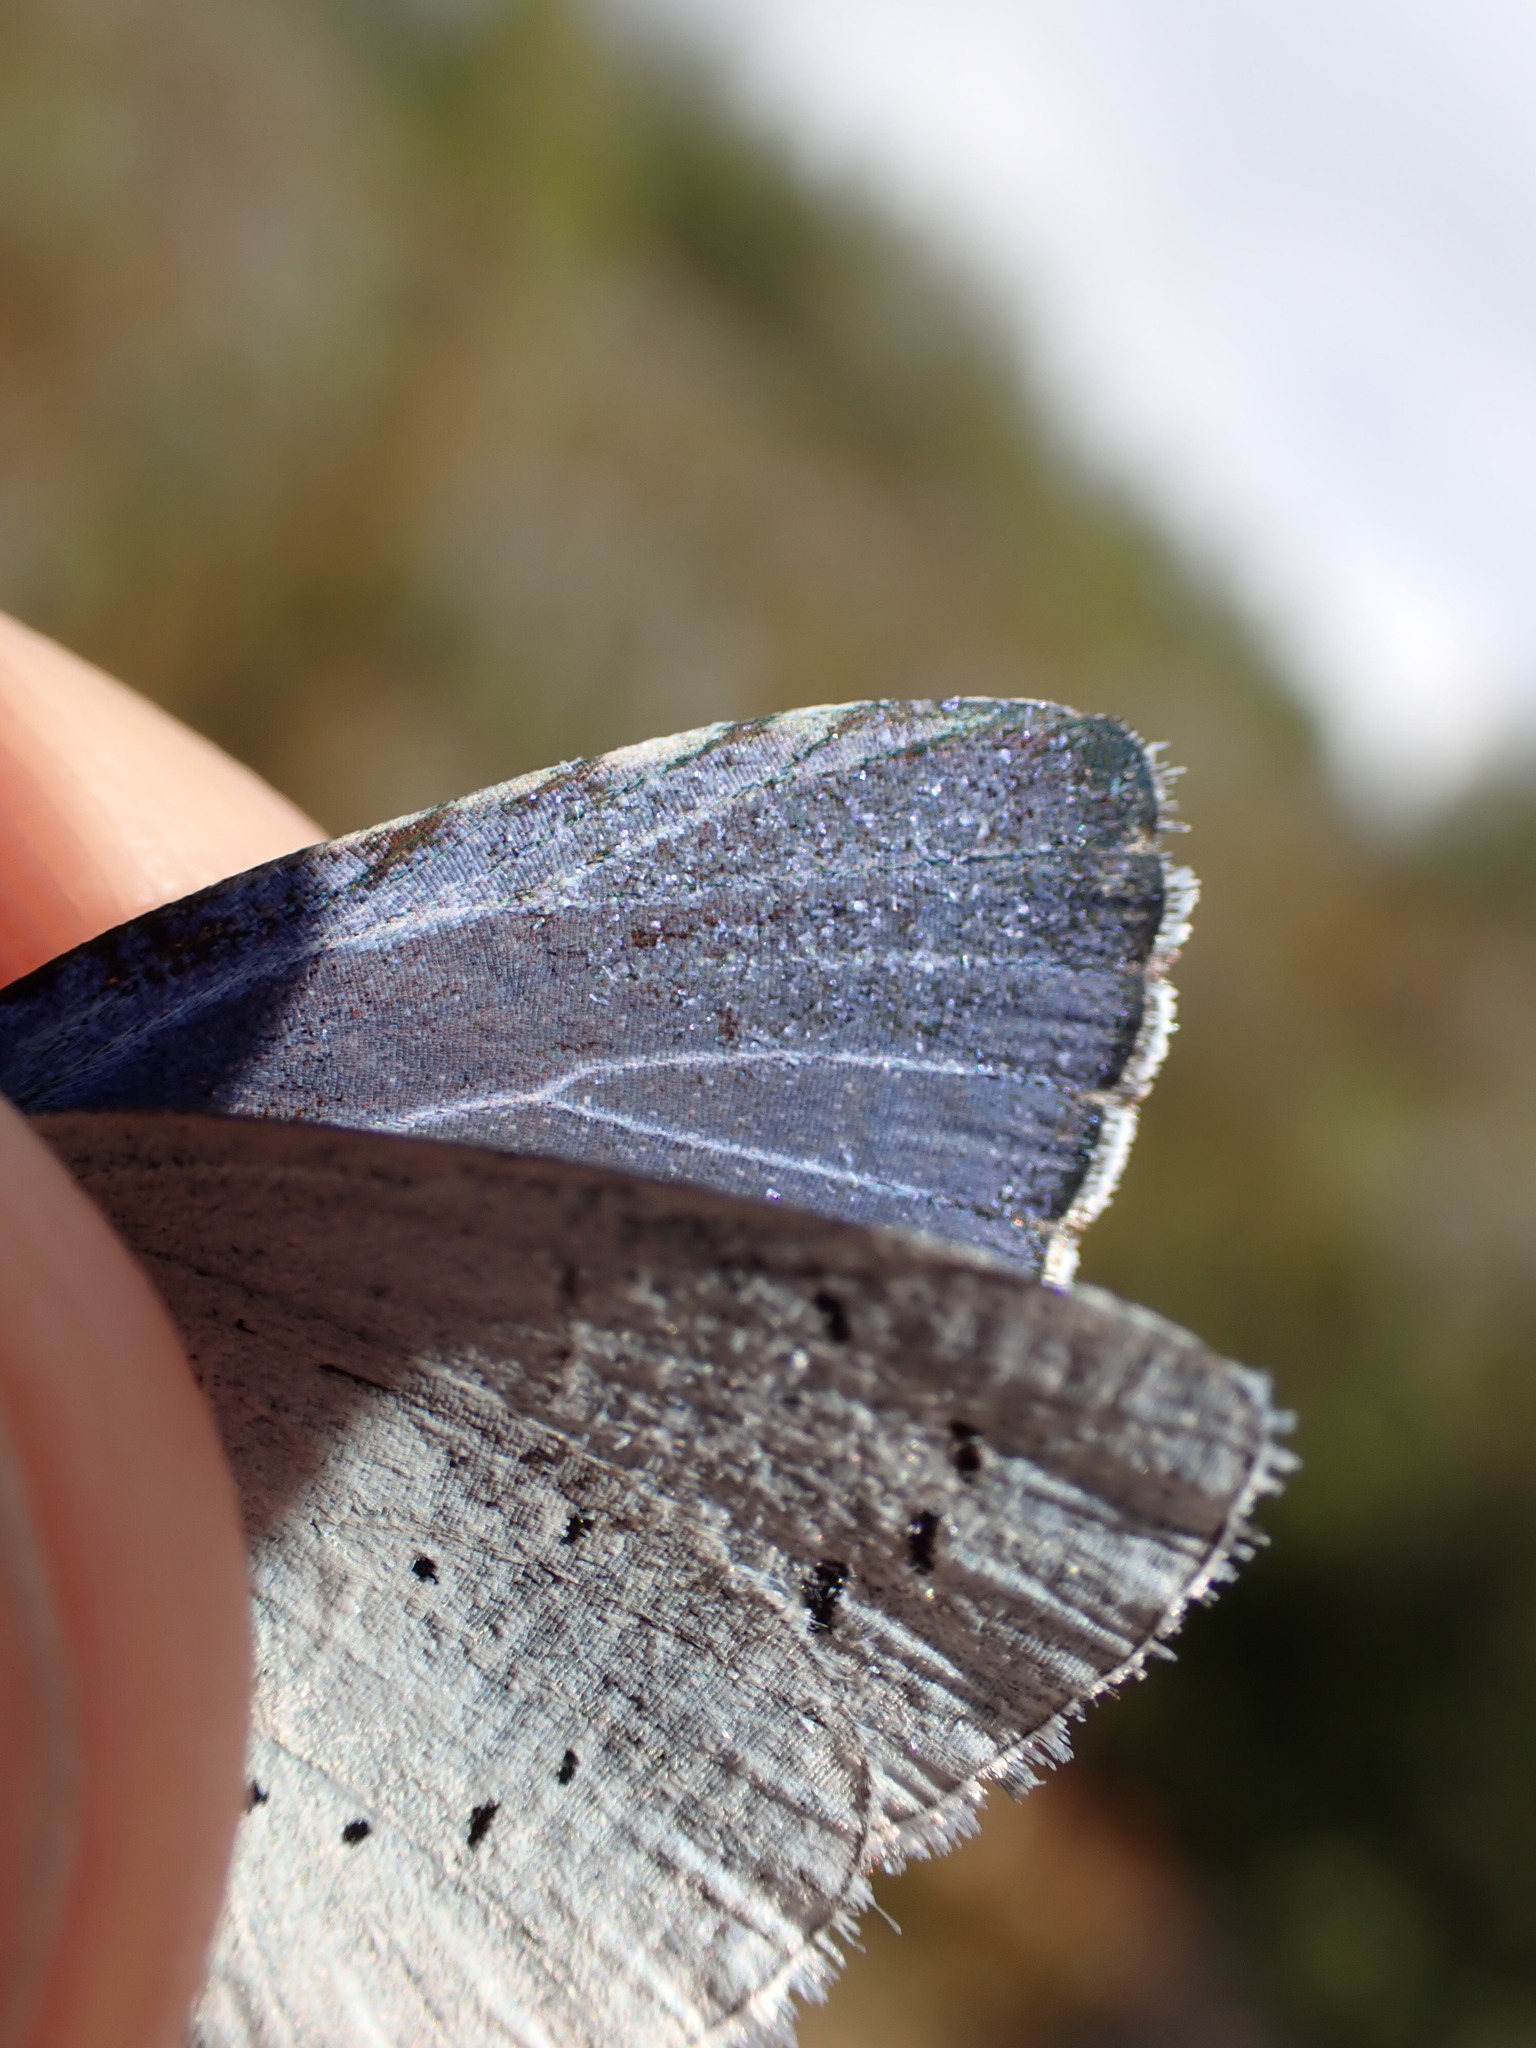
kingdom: Animalia
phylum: Arthropoda
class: Insecta
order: Lepidoptera
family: Lycaenidae
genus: Celastrina
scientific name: Celastrina argiolus
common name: Holly blue
